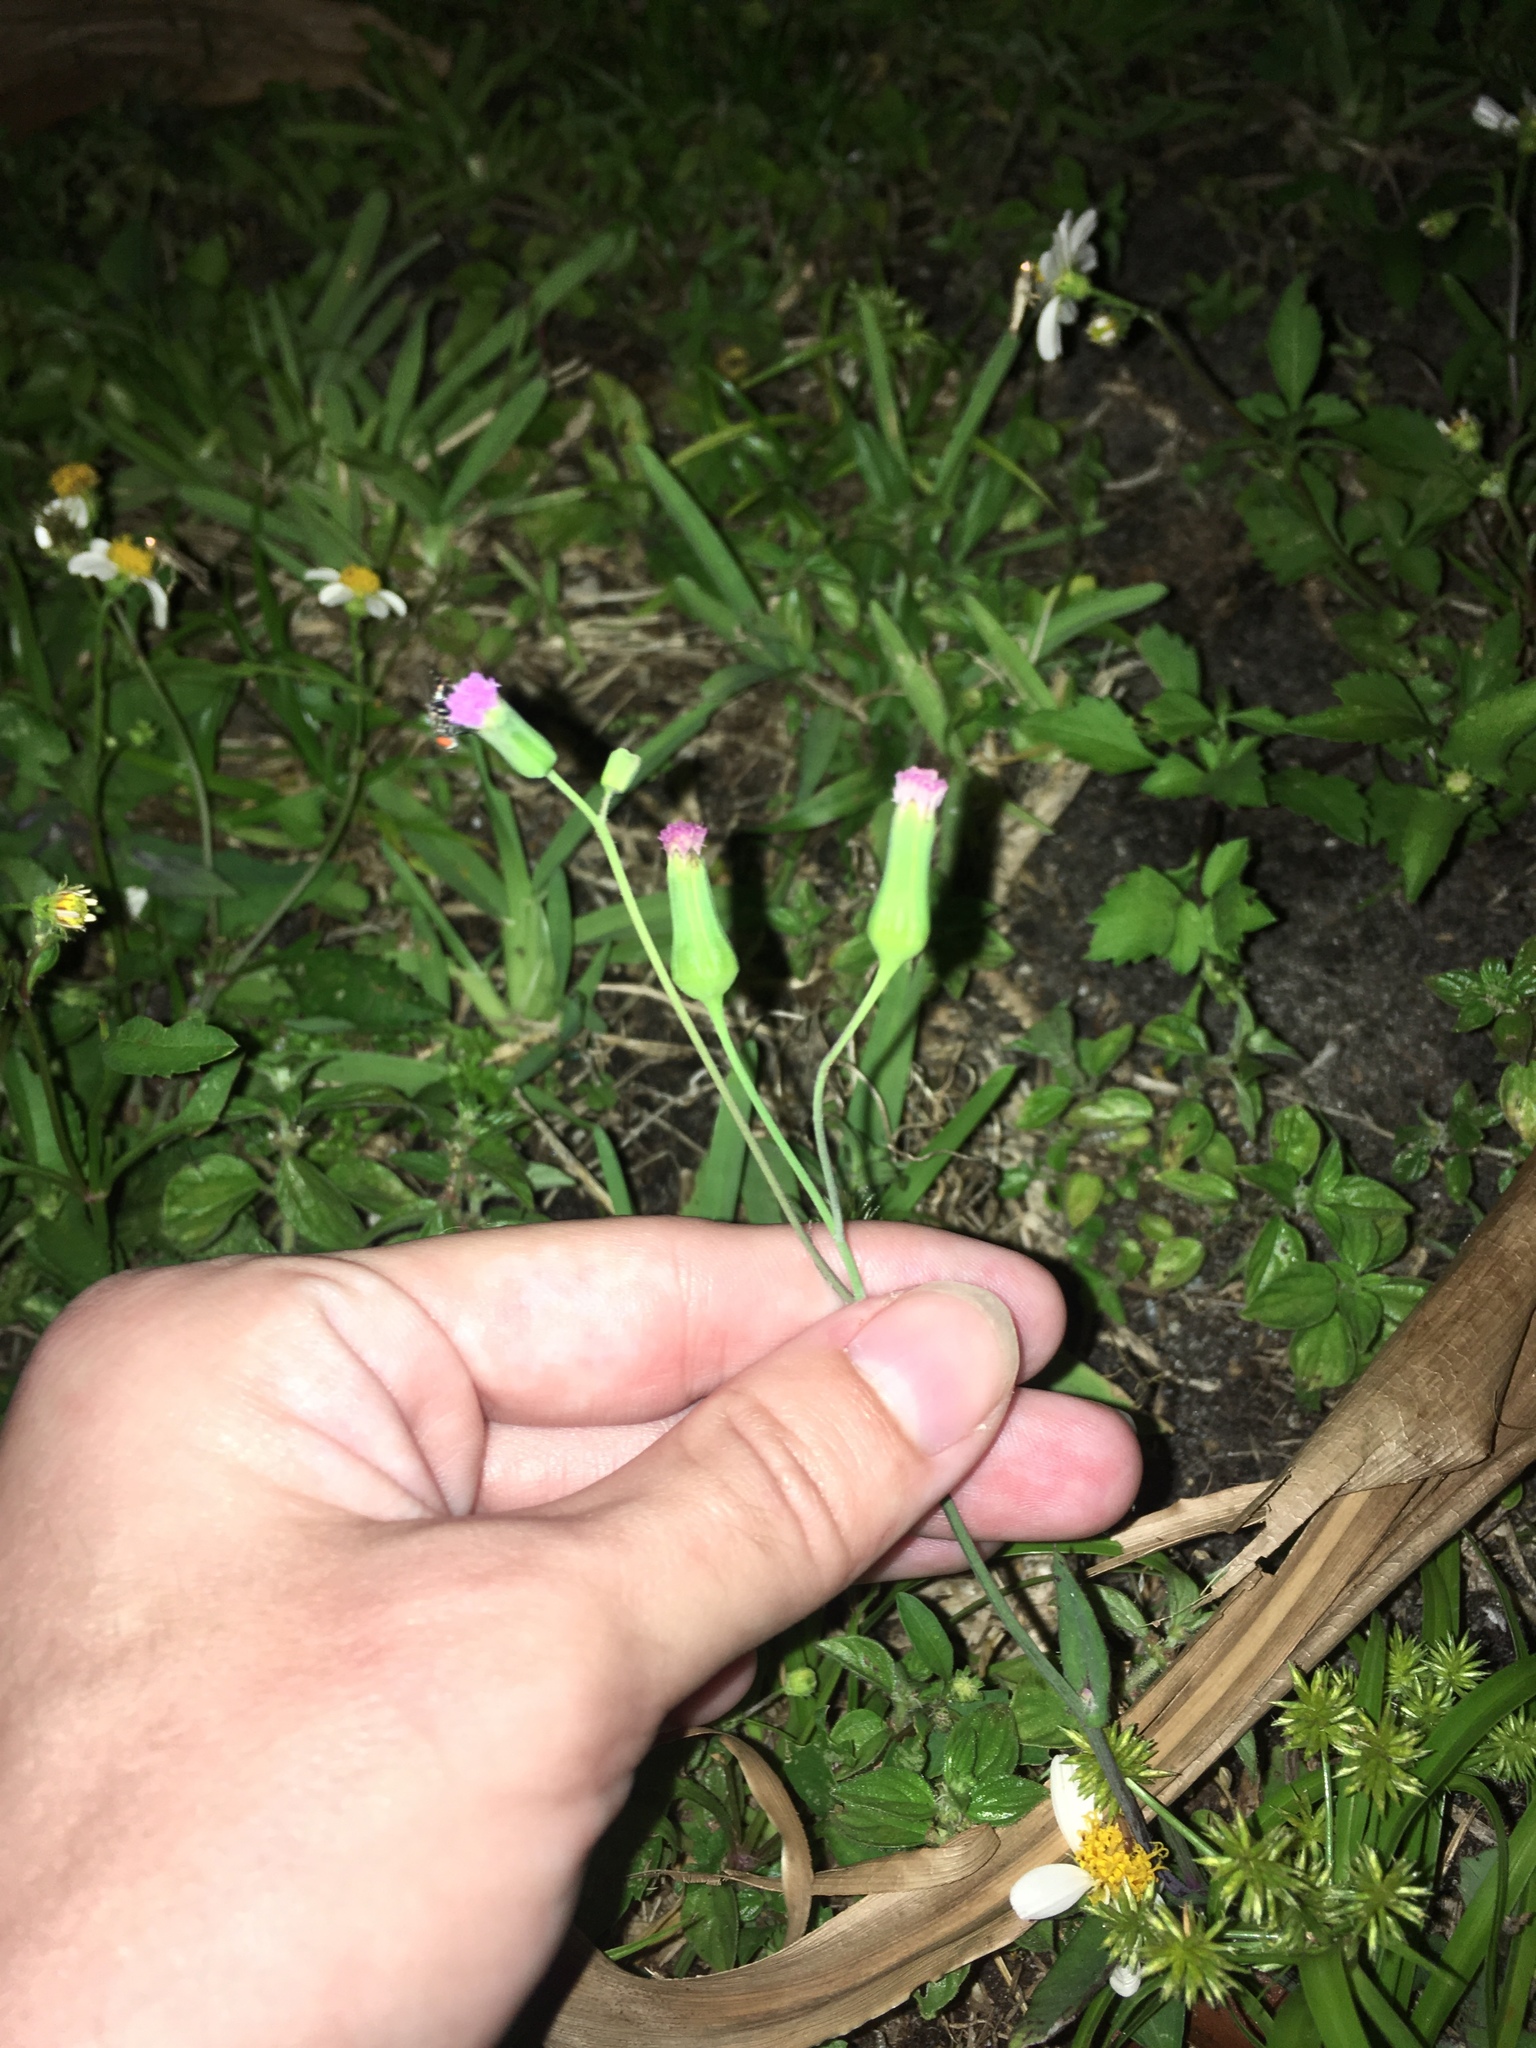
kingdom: Plantae
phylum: Tracheophyta
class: Magnoliopsida
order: Asterales
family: Asteraceae
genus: Emilia
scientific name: Emilia sonchifolia
